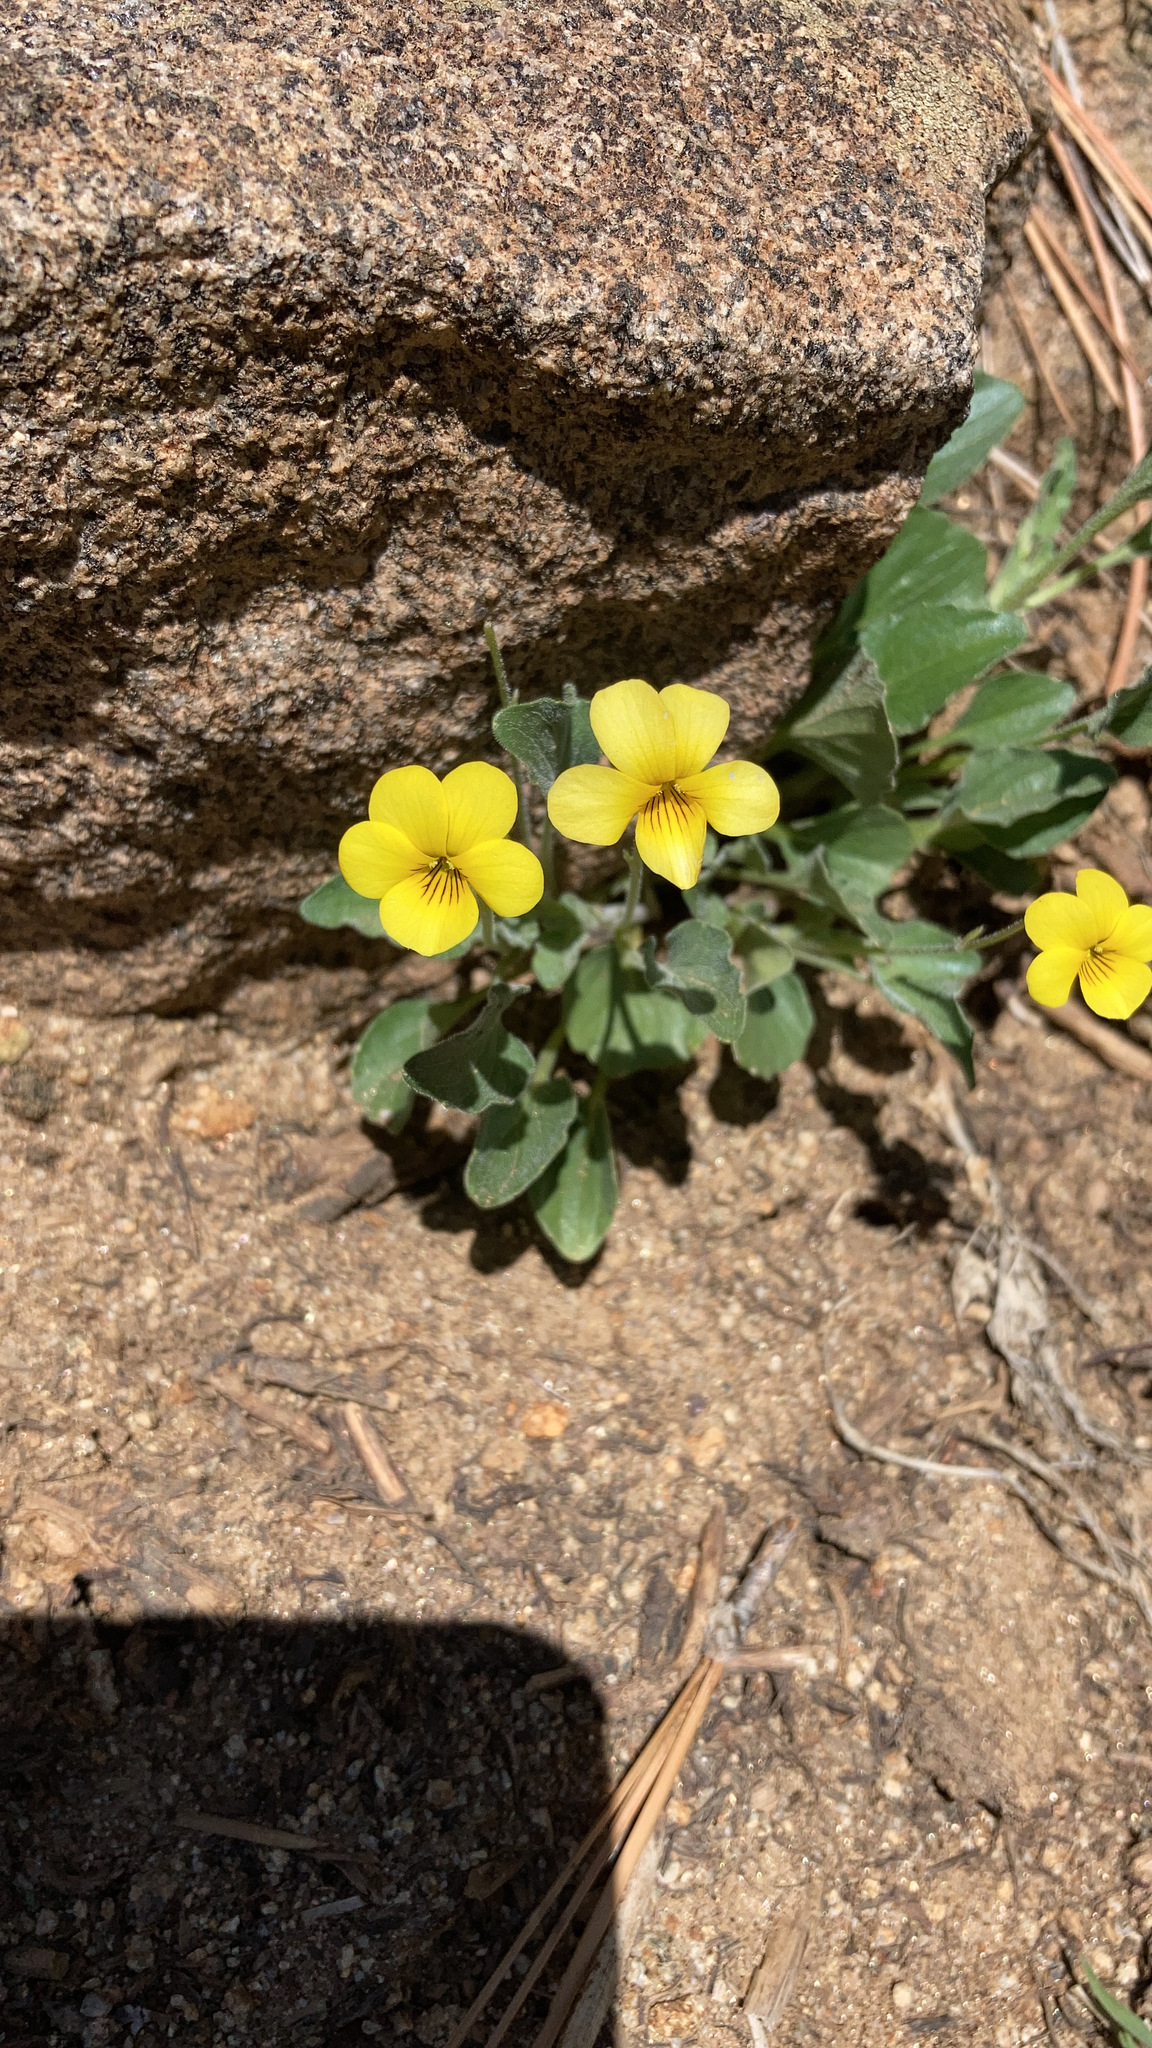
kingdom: Plantae
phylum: Tracheophyta
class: Magnoliopsida
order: Malpighiales
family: Violaceae
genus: Viola
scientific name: Viola purpurea
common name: Pine violet
